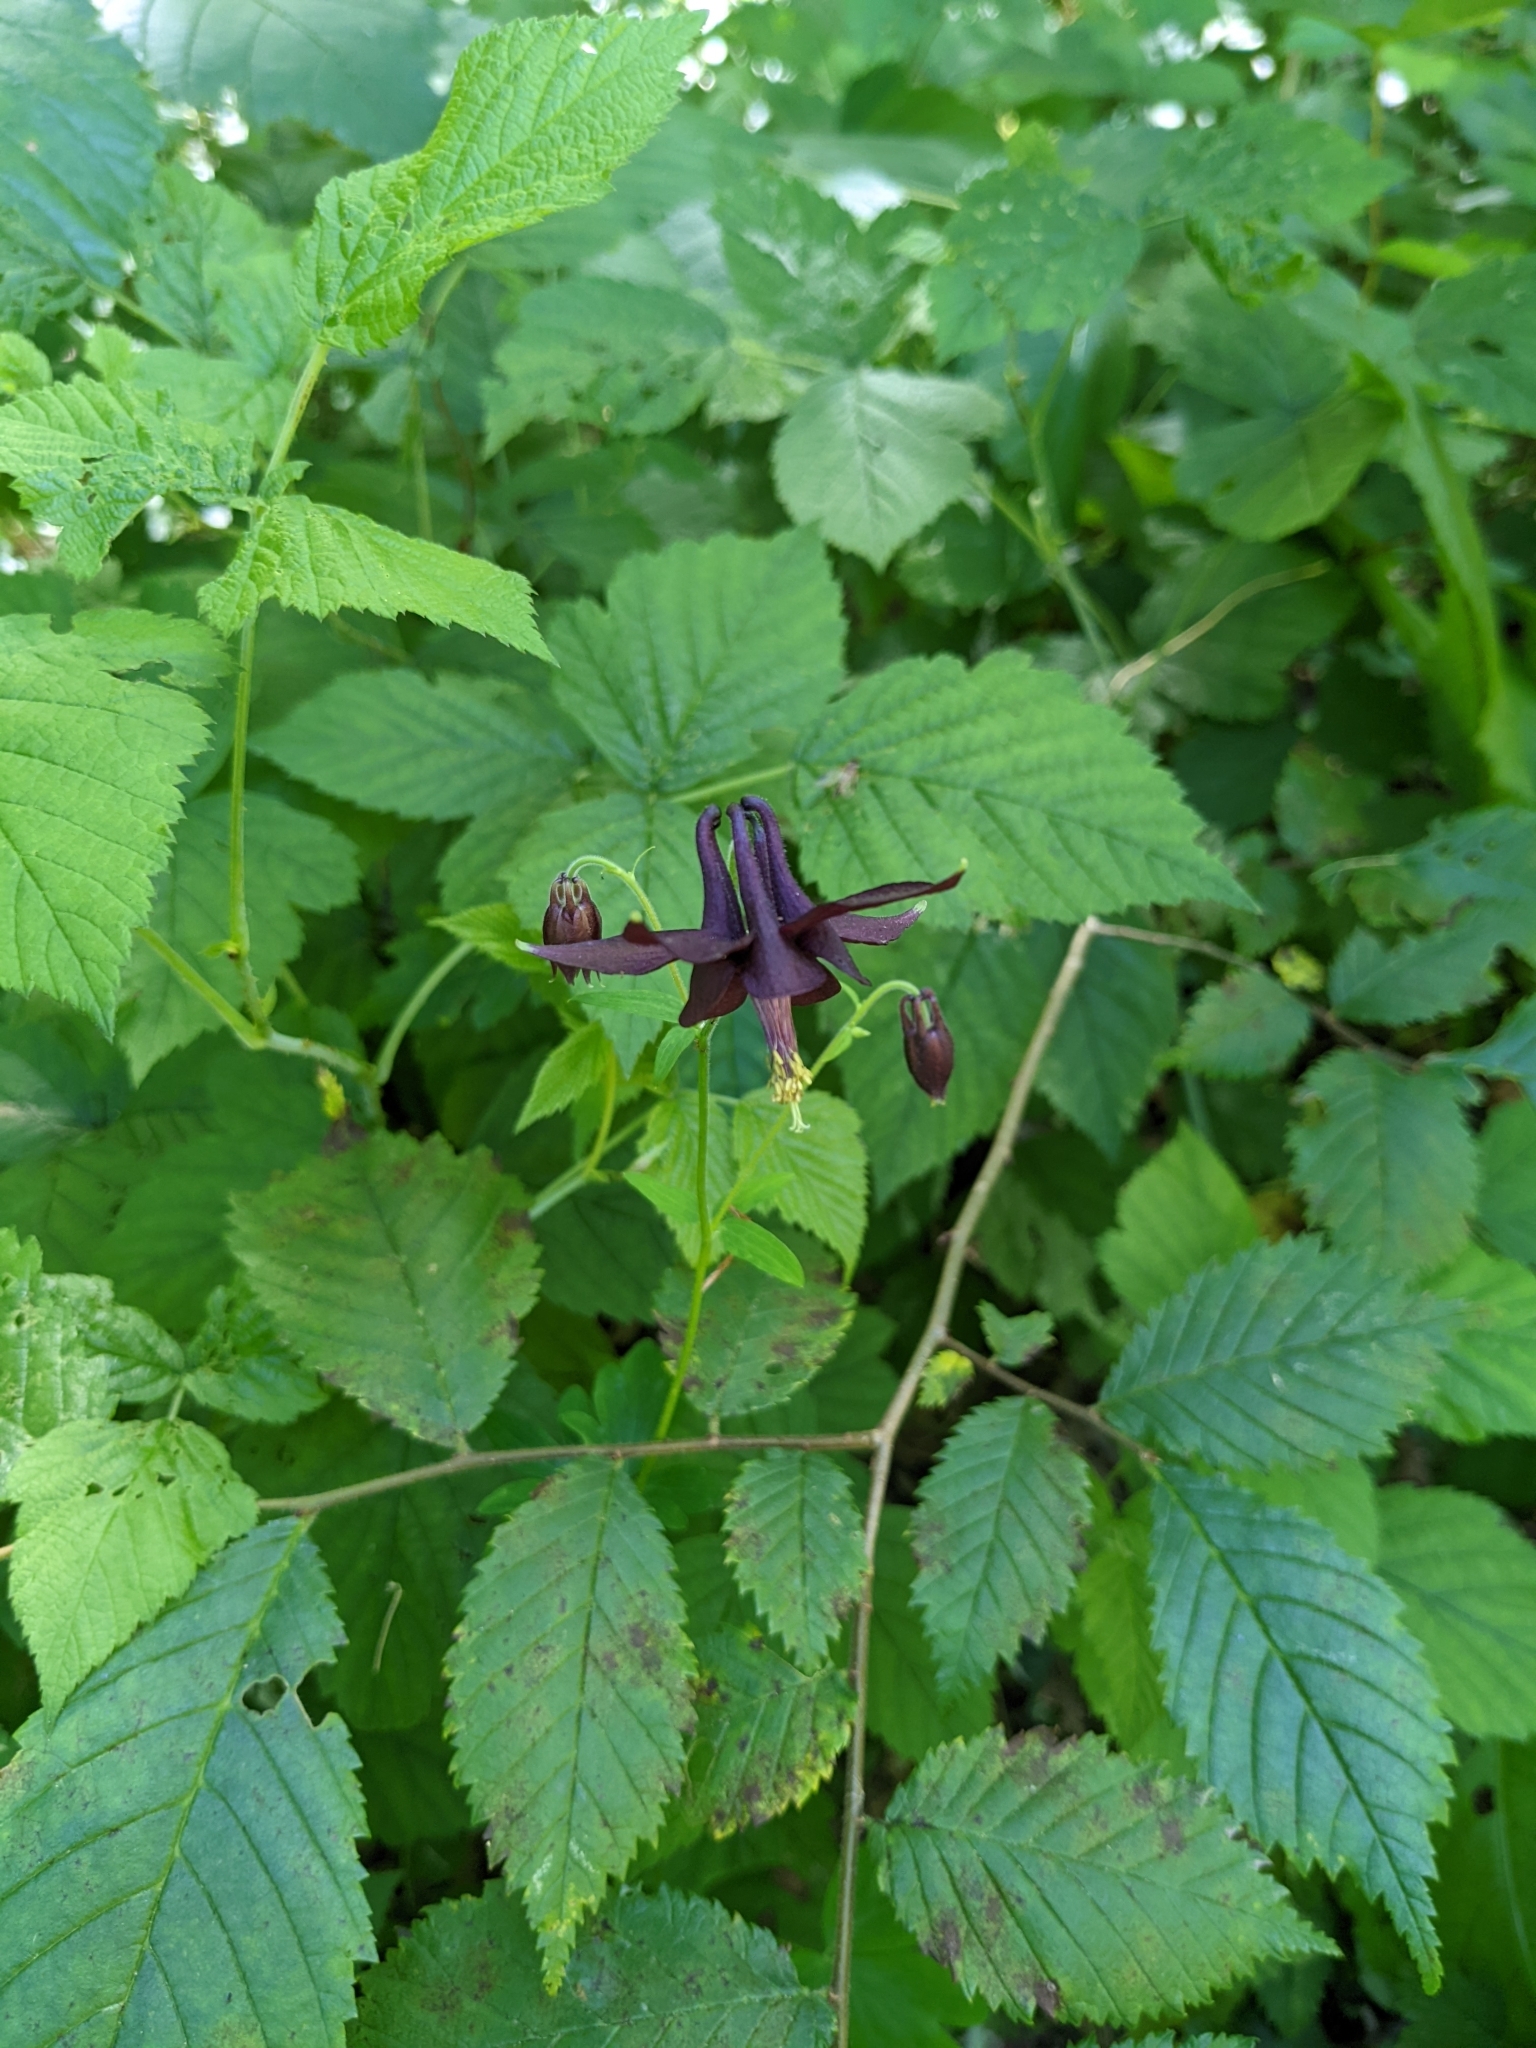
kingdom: Plantae
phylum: Tracheophyta
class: Magnoliopsida
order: Ranunculales
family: Ranunculaceae
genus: Aquilegia
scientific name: Aquilegia atrata
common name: Dark columbine
